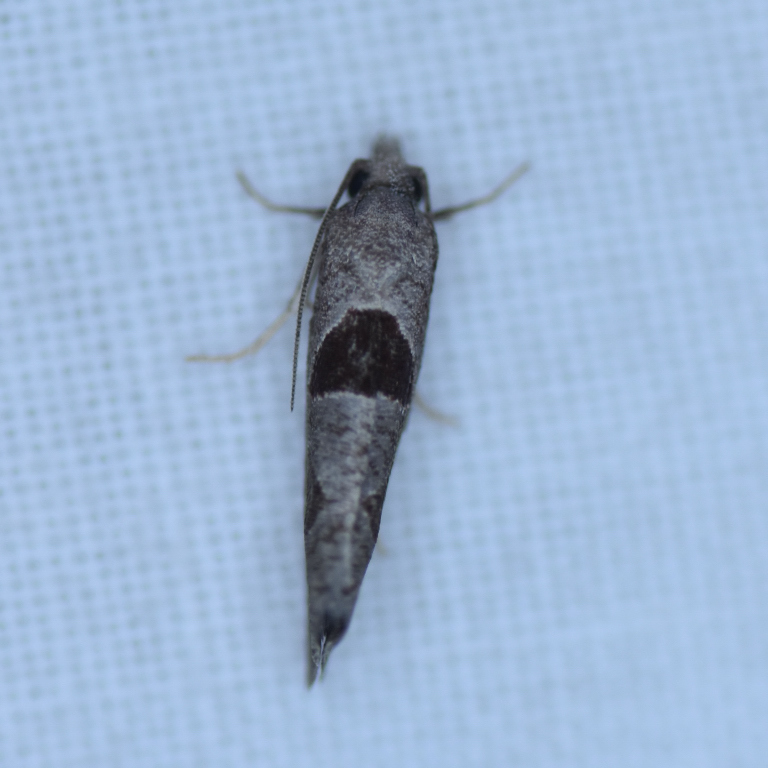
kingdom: Animalia
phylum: Arthropoda
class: Insecta
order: Lepidoptera
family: Tortricidae
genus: Pelochrista
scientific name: Pelochrista dorsisignatana
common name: Triangle-backed pelochrista moth
